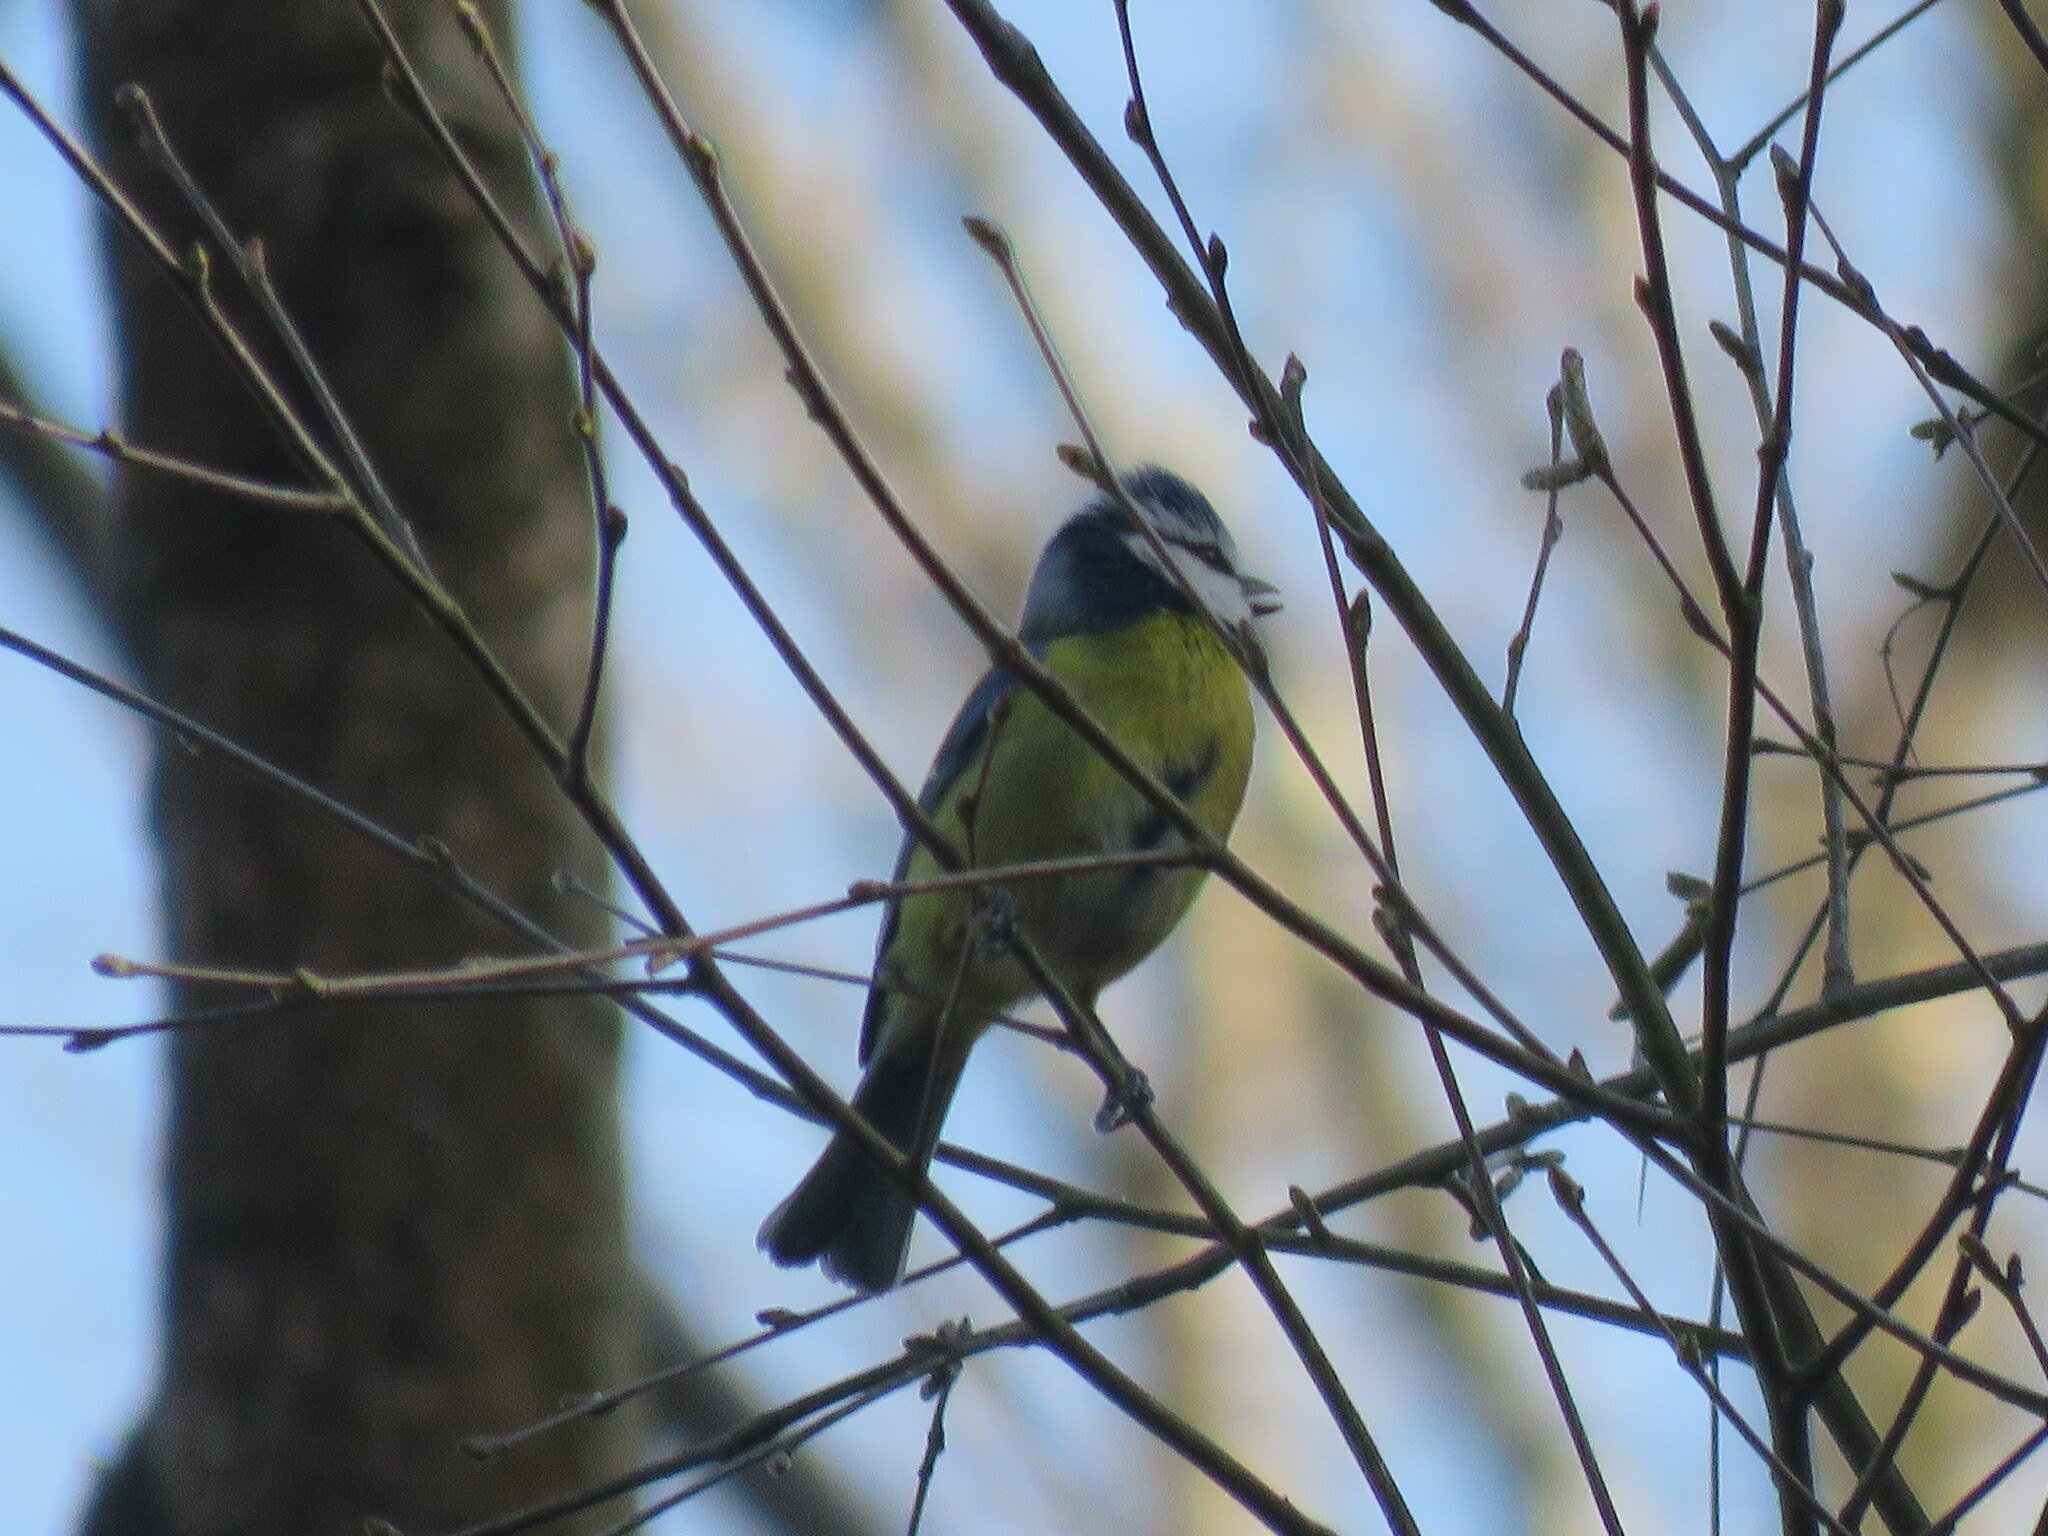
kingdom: Animalia
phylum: Chordata
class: Aves
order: Passeriformes
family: Paridae
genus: Cyanistes
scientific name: Cyanistes caeruleus
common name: Eurasian blue tit
